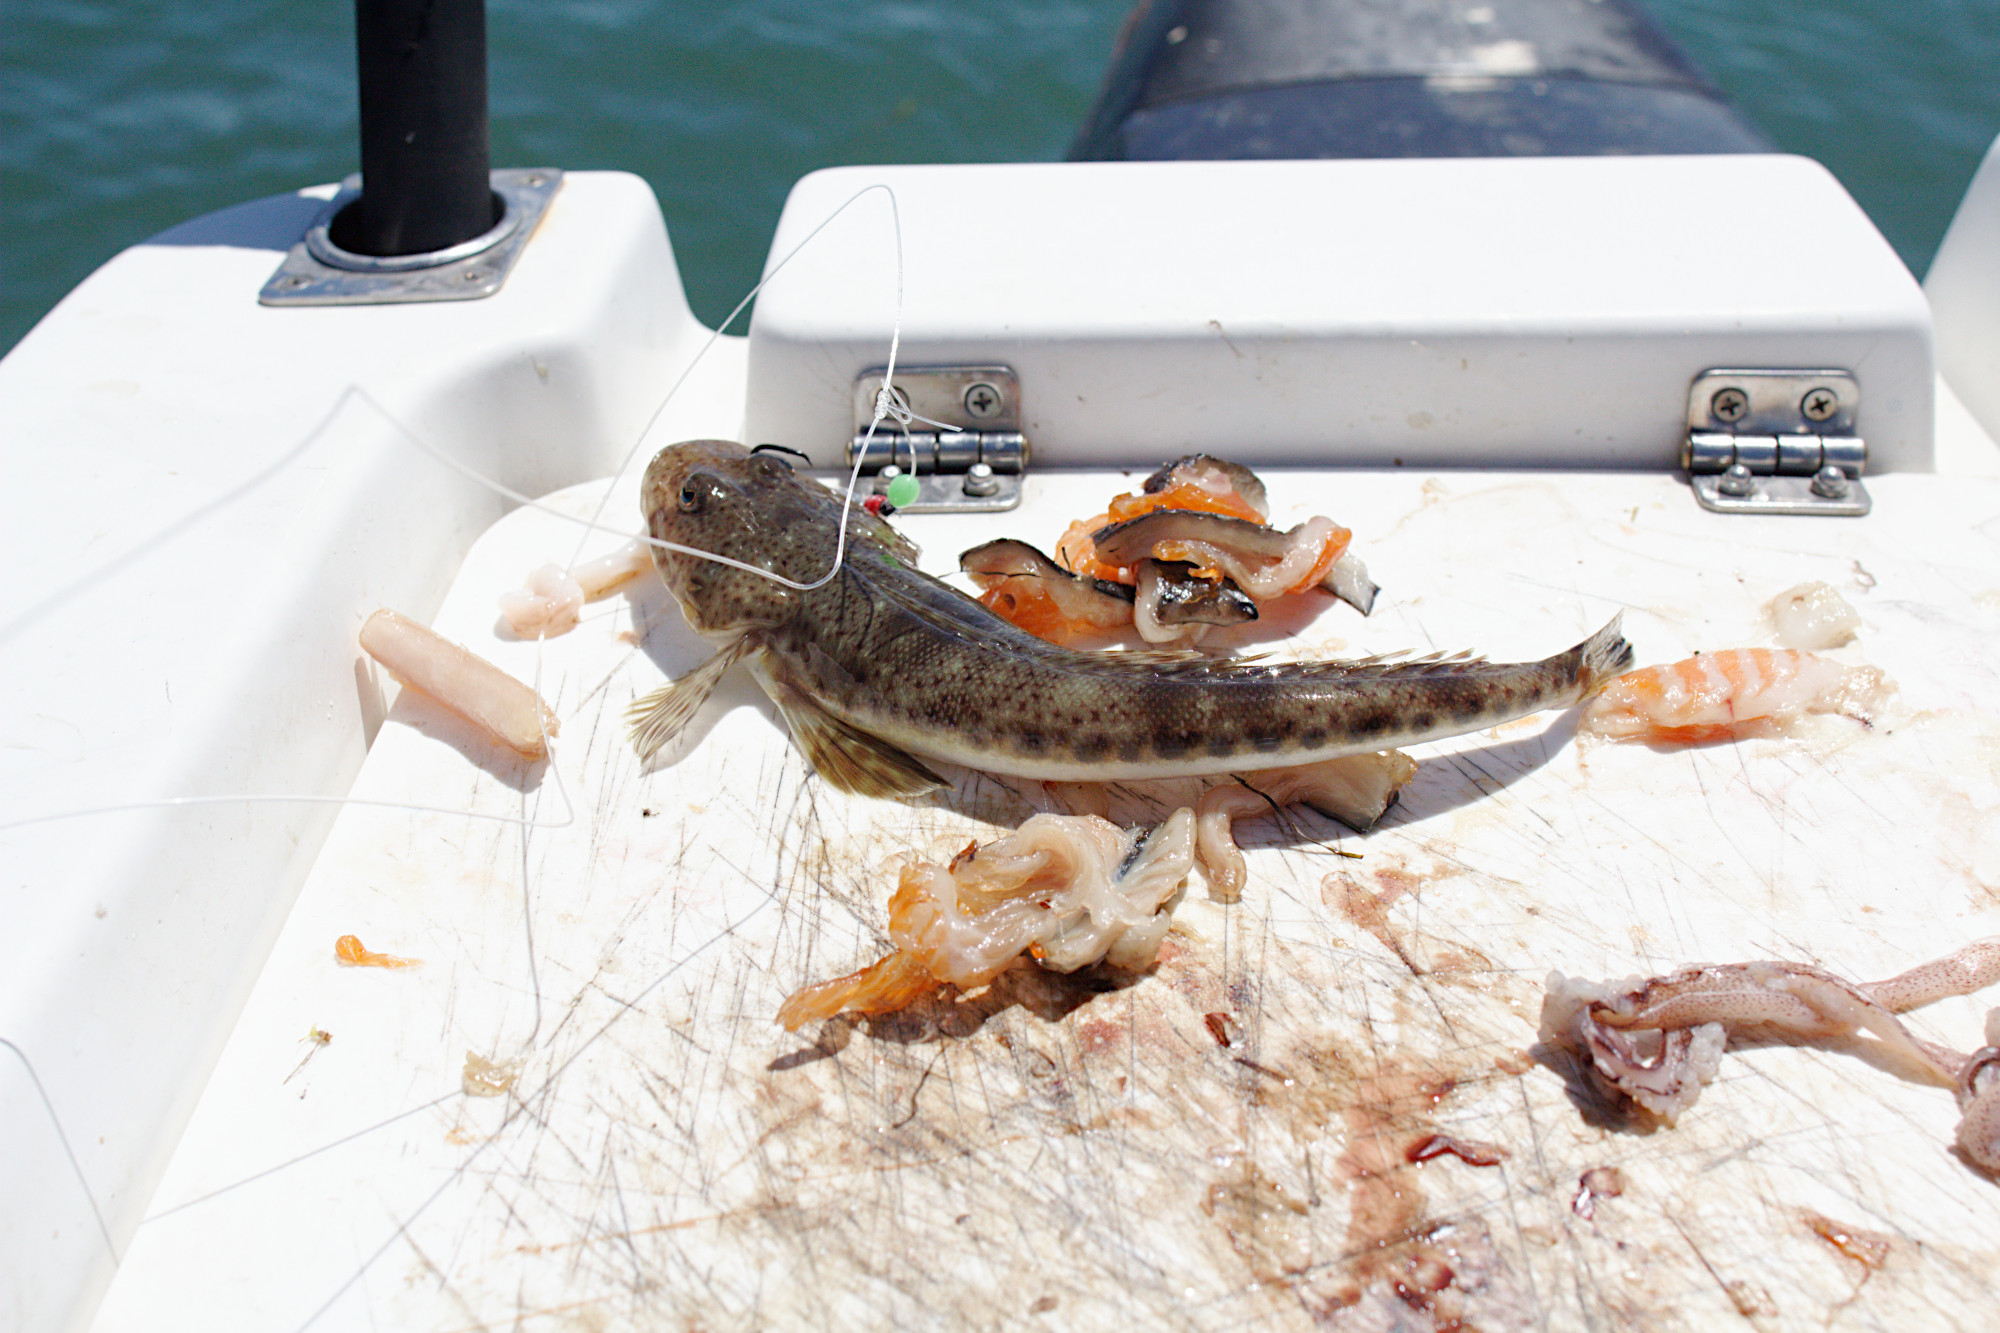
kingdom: Animalia
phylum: Chordata
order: Scorpaeniformes
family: Platycephalidae
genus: Platycephalus
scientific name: Platycephalus bassensis
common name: Sand flathead
